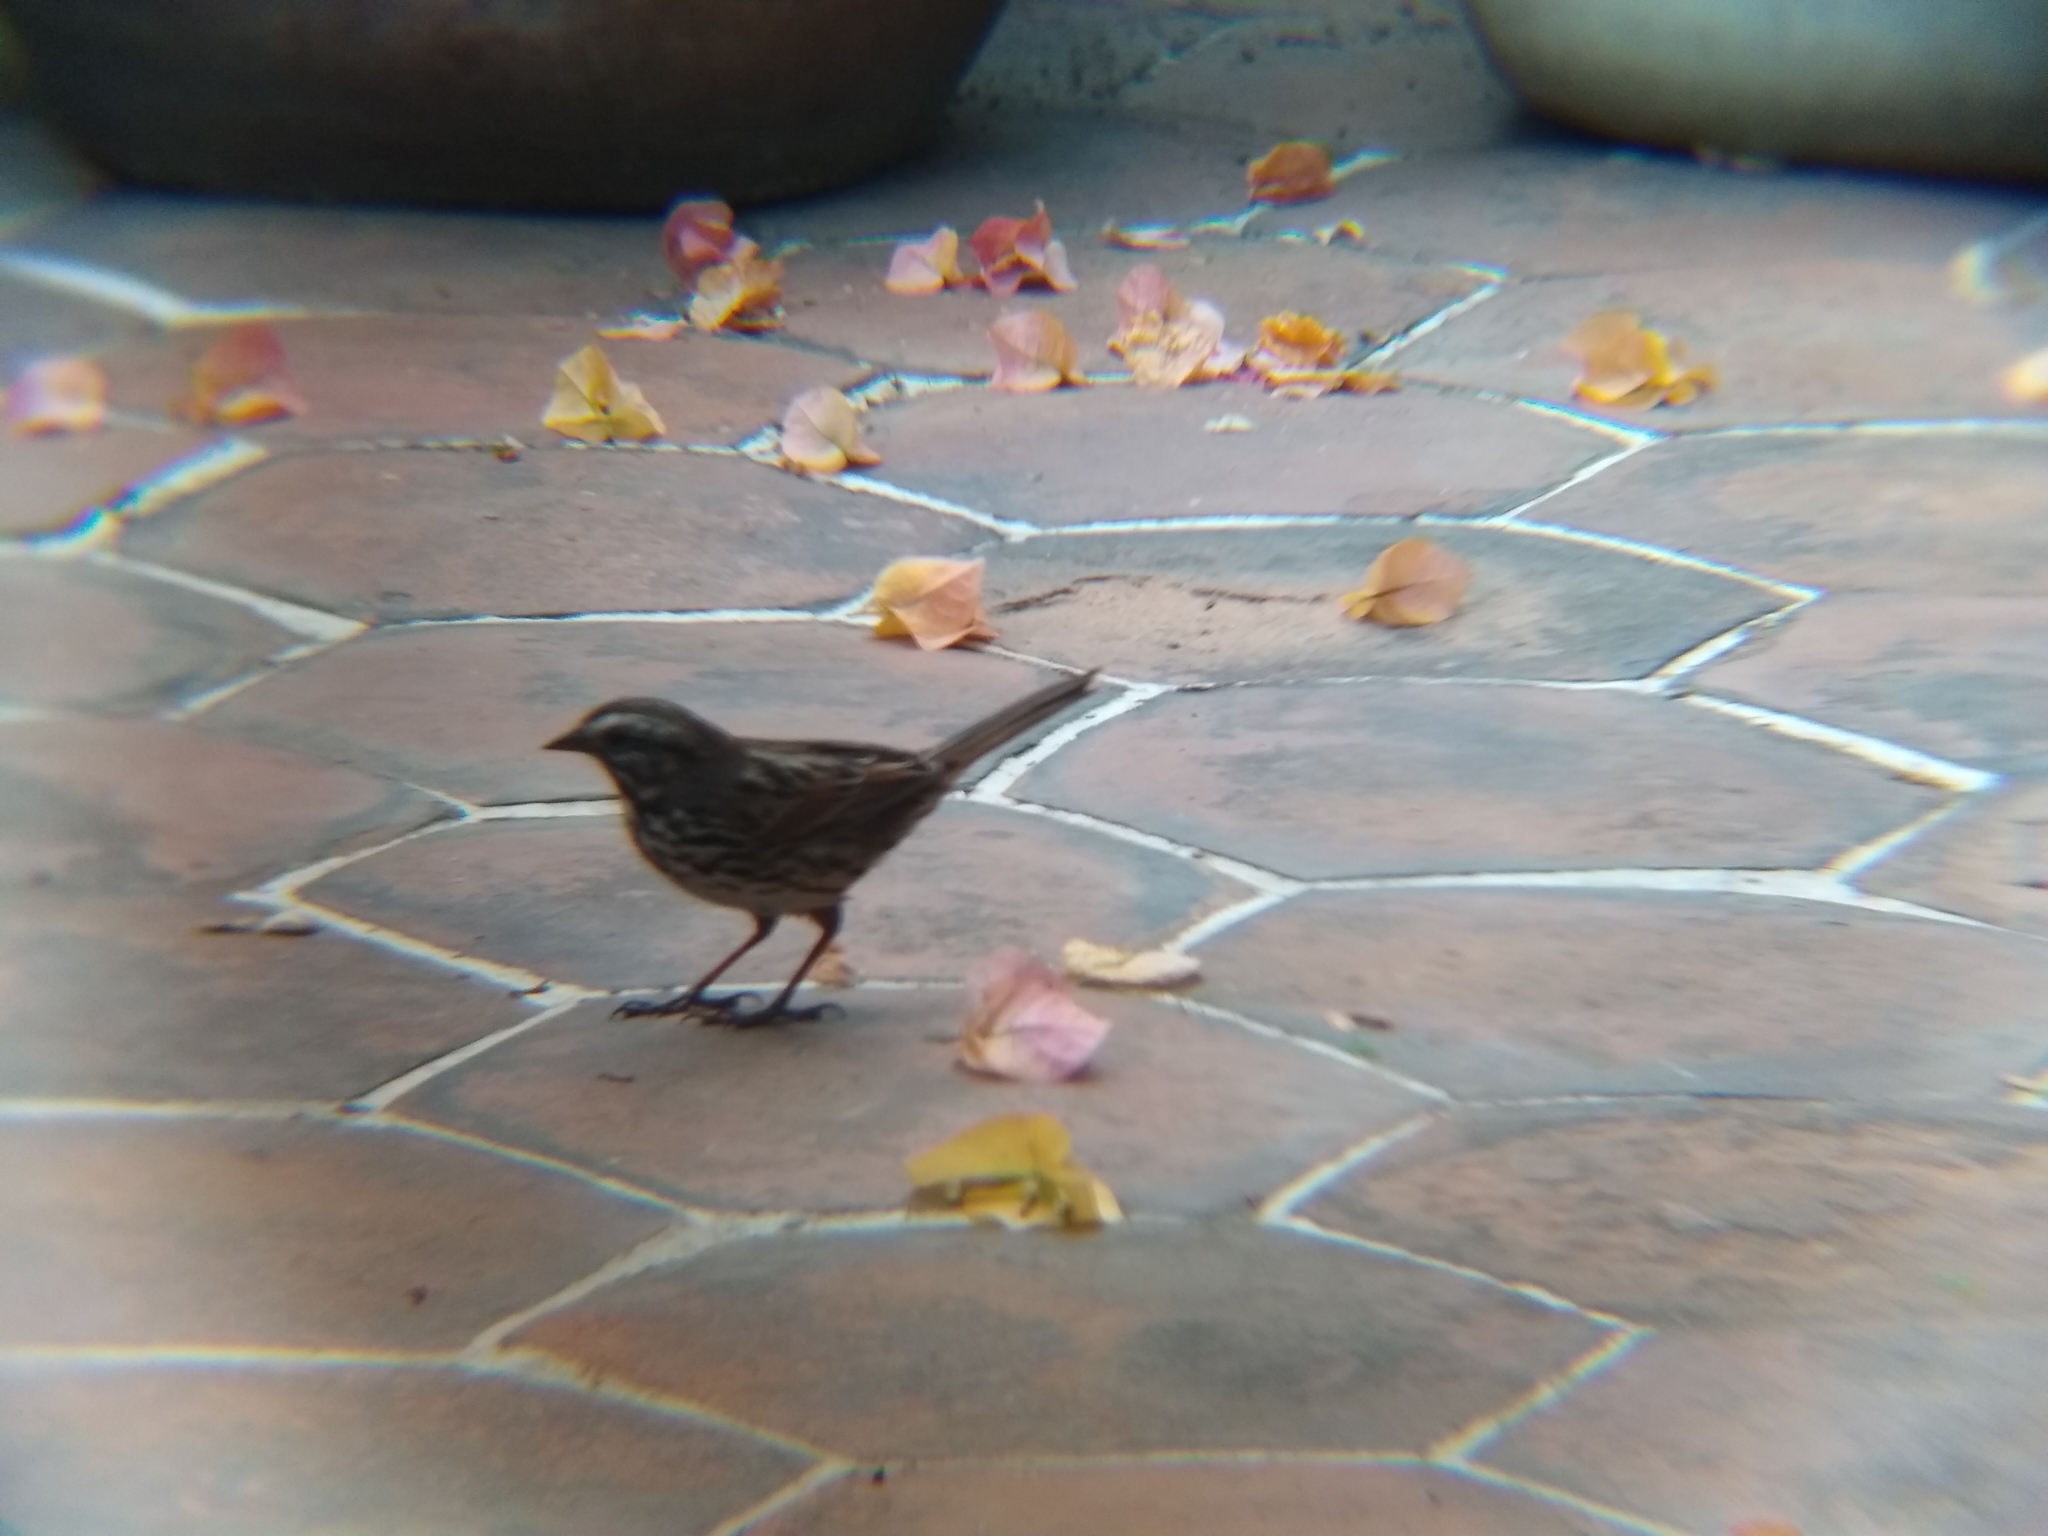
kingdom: Animalia
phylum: Chordata
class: Aves
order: Passeriformes
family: Passerellidae
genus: Melospiza
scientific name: Melospiza melodia
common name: Song sparrow
